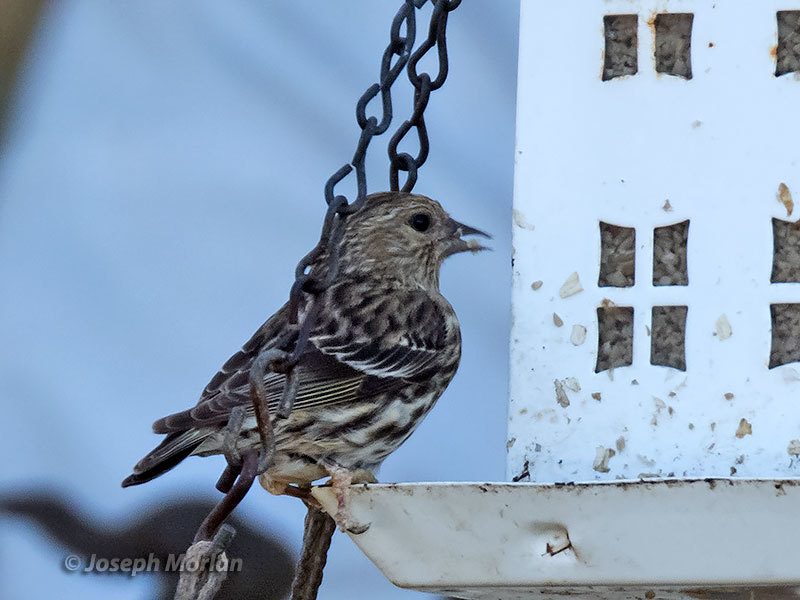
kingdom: Animalia
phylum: Chordata
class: Aves
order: Passeriformes
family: Fringillidae
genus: Spinus
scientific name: Spinus pinus
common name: Pine siskin
